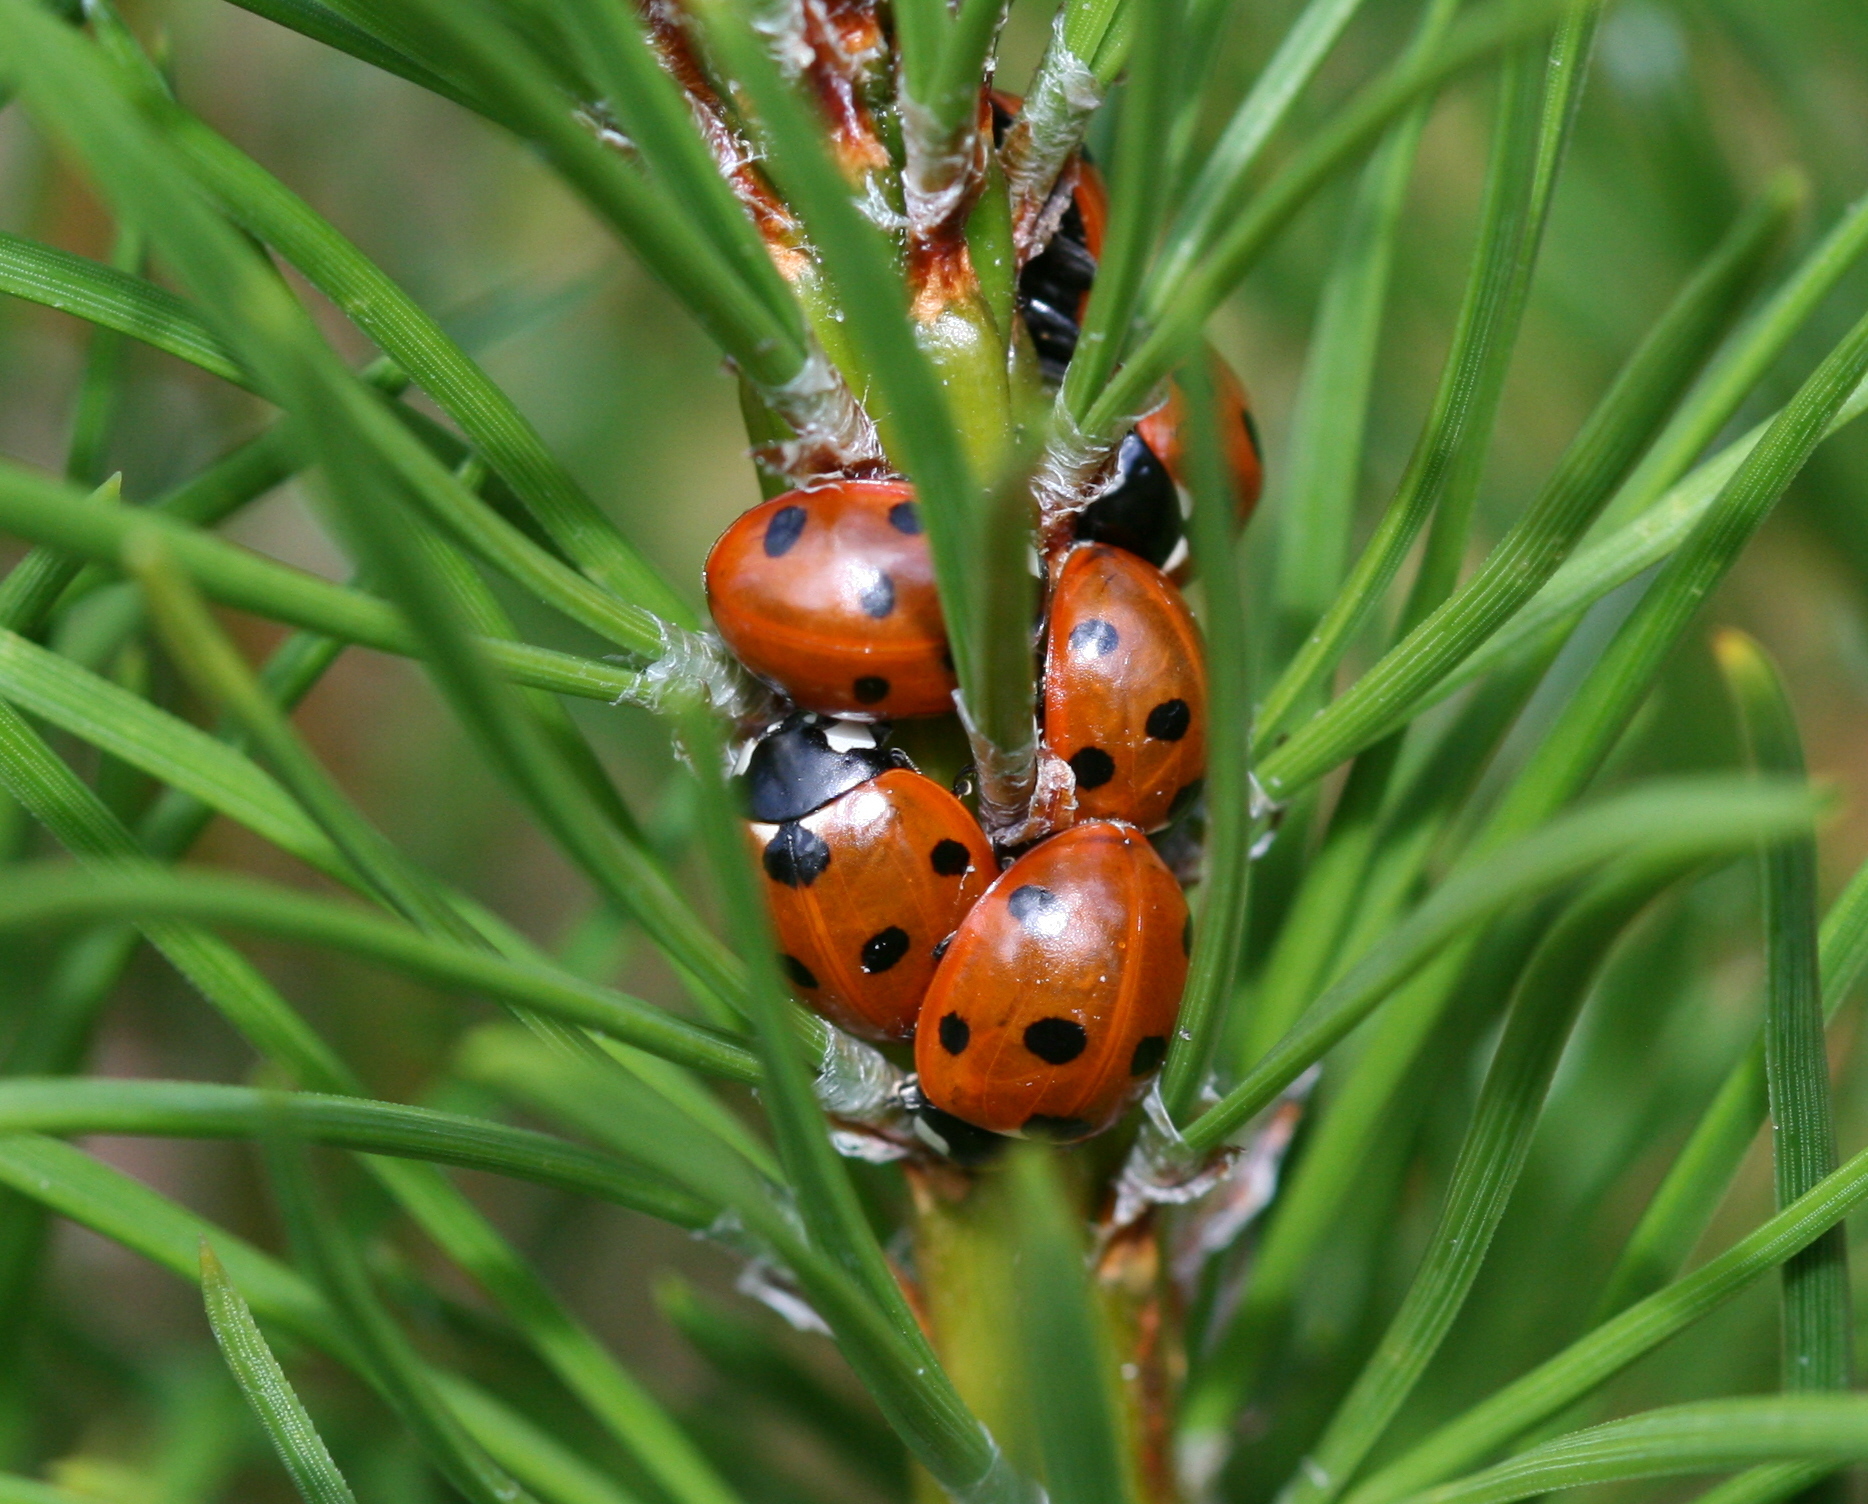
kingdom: Animalia
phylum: Arthropoda
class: Insecta
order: Coleoptera
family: Coccinellidae
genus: Coccinella
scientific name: Coccinella septempunctata
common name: Sevenspotted lady beetle
